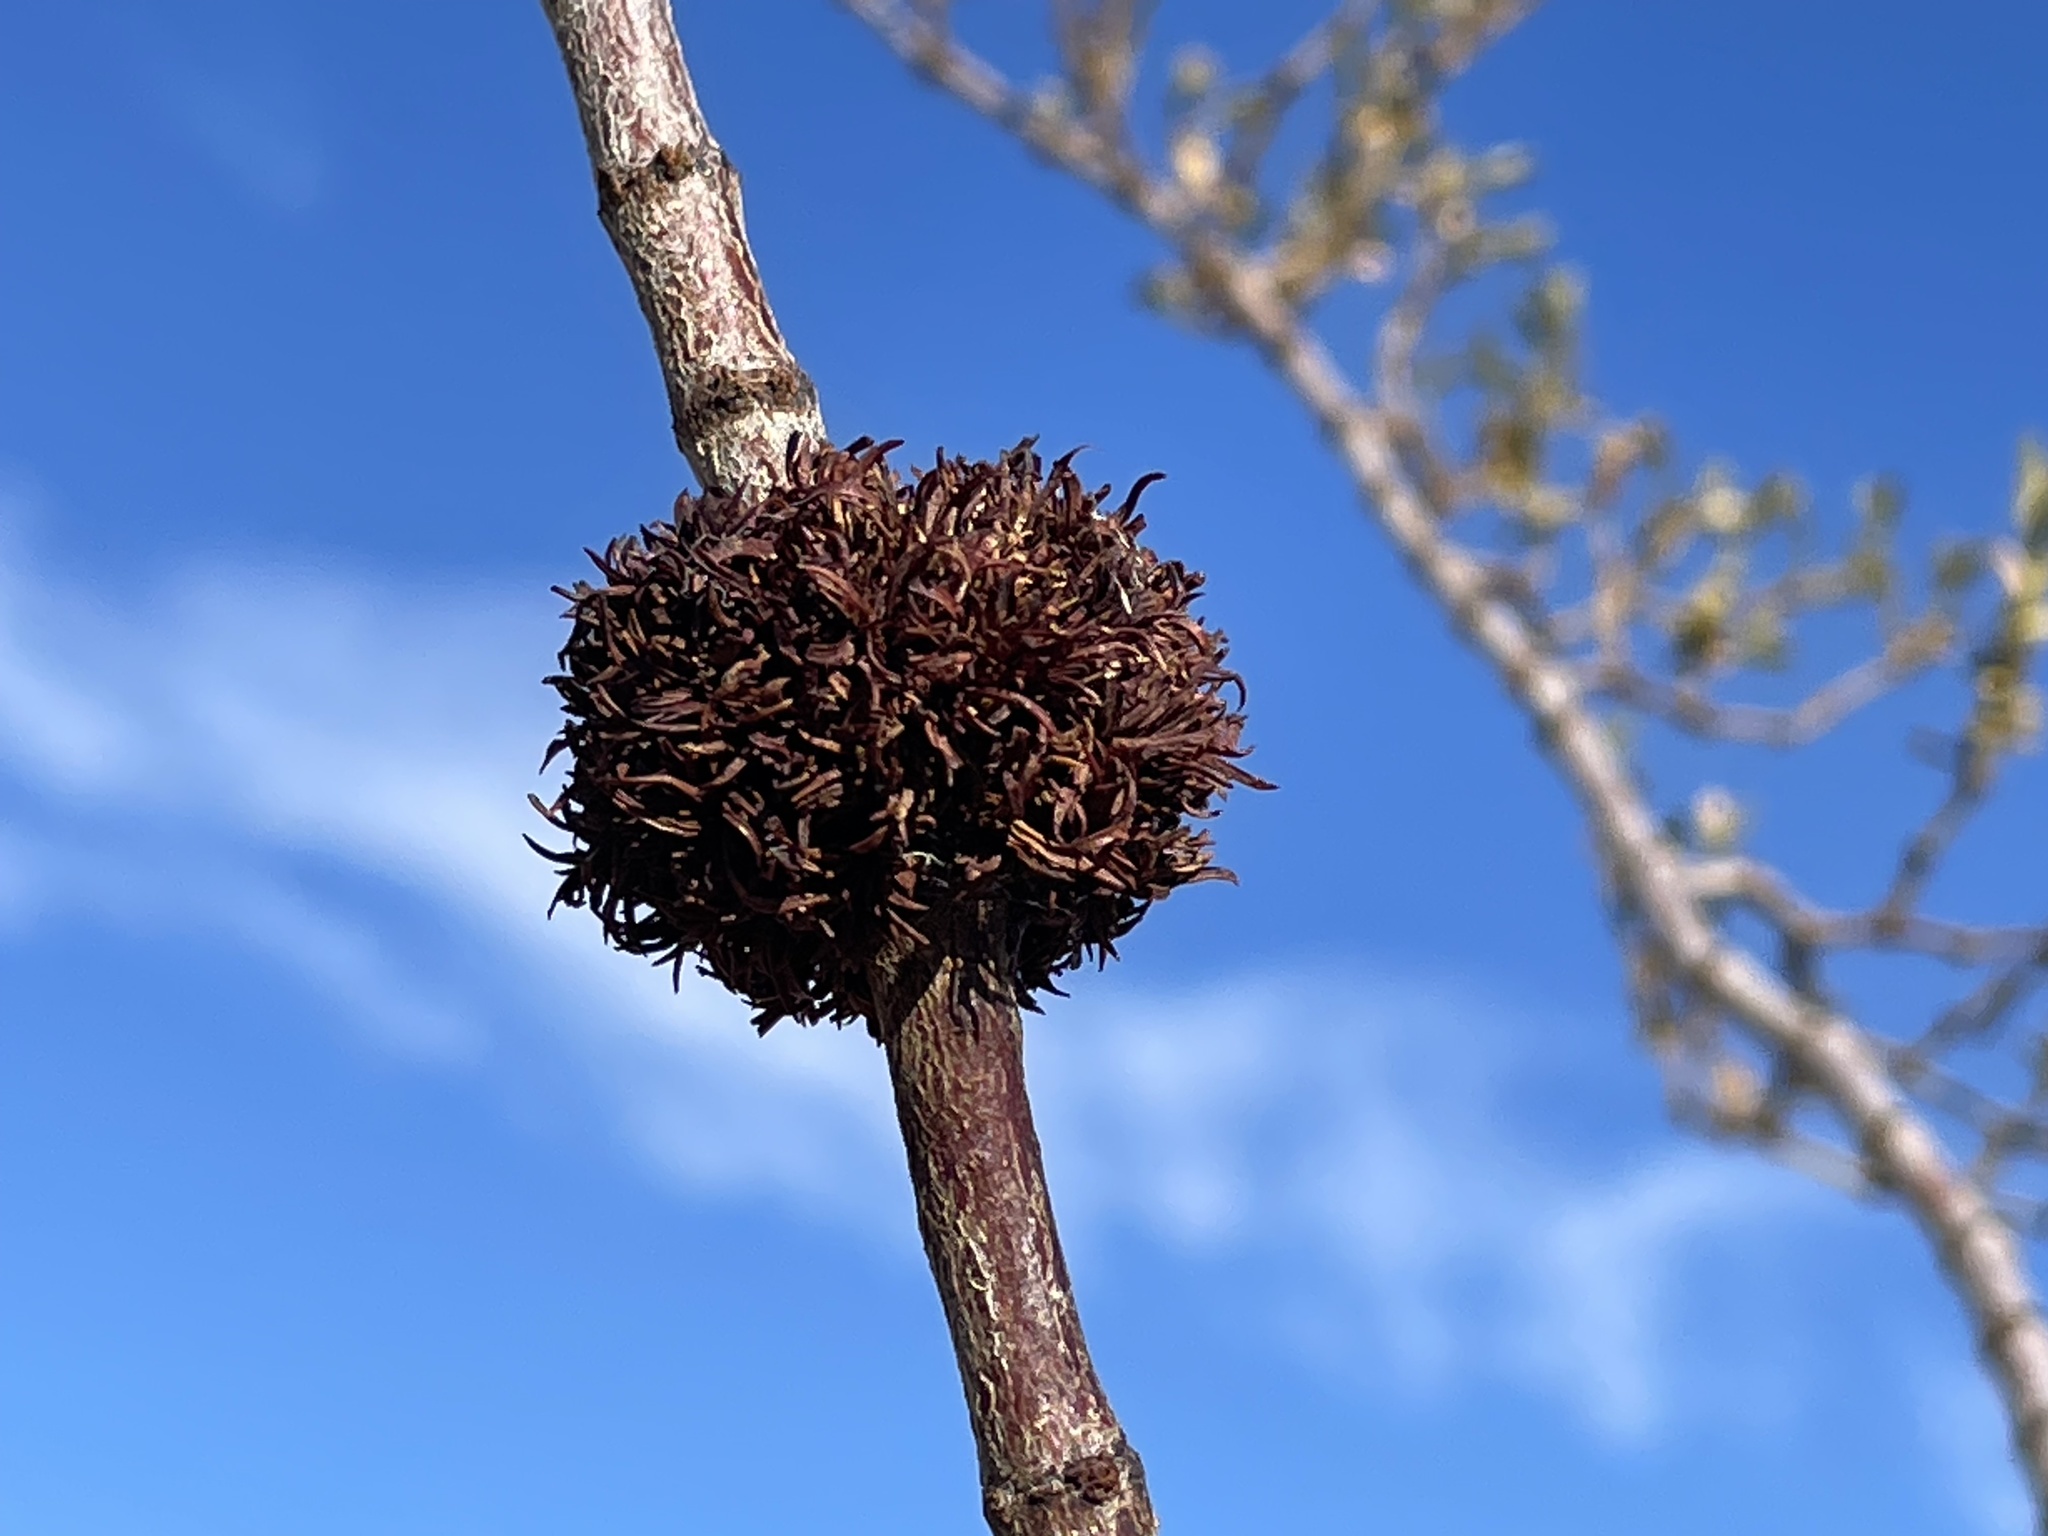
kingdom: Animalia
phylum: Arthropoda
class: Insecta
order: Diptera
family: Cecidomyiidae
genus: Asphondylia
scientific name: Asphondylia auripila
